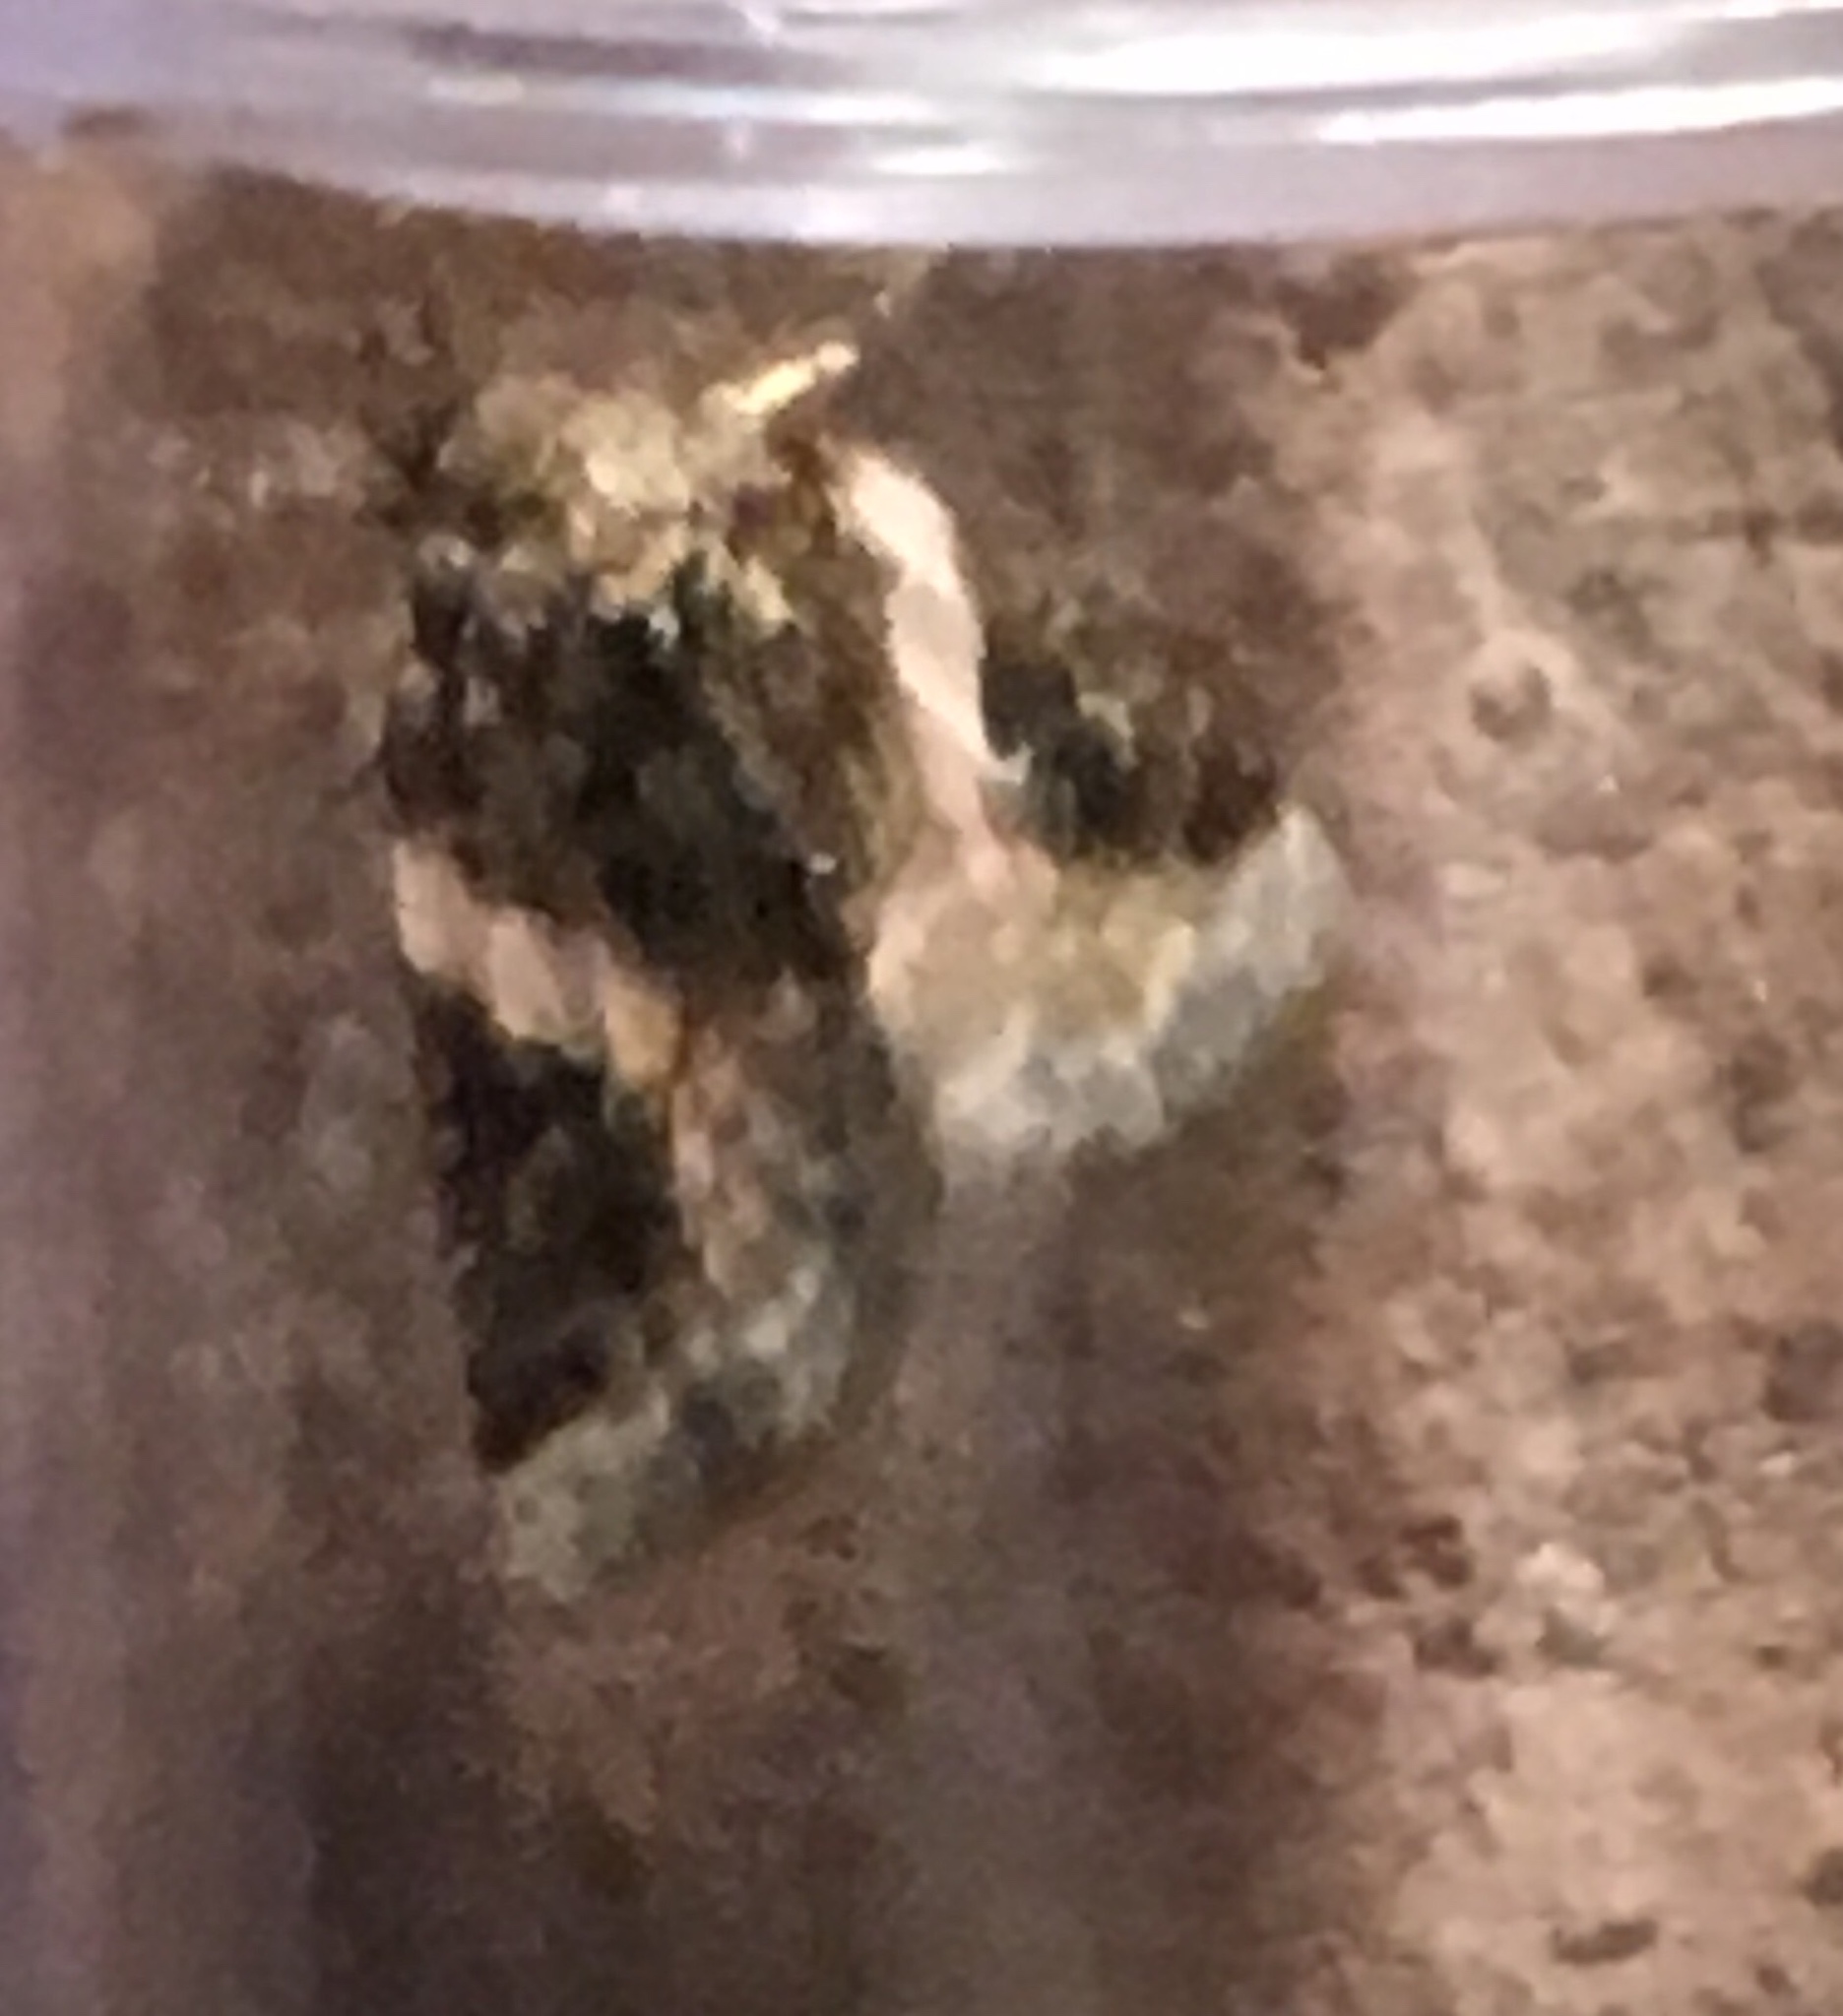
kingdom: Animalia
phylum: Arthropoda
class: Insecta
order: Lepidoptera
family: Noctuidae
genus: Pseudeustrotia
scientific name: Pseudeustrotia carneola
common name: Pink-barred lithacodia moth
